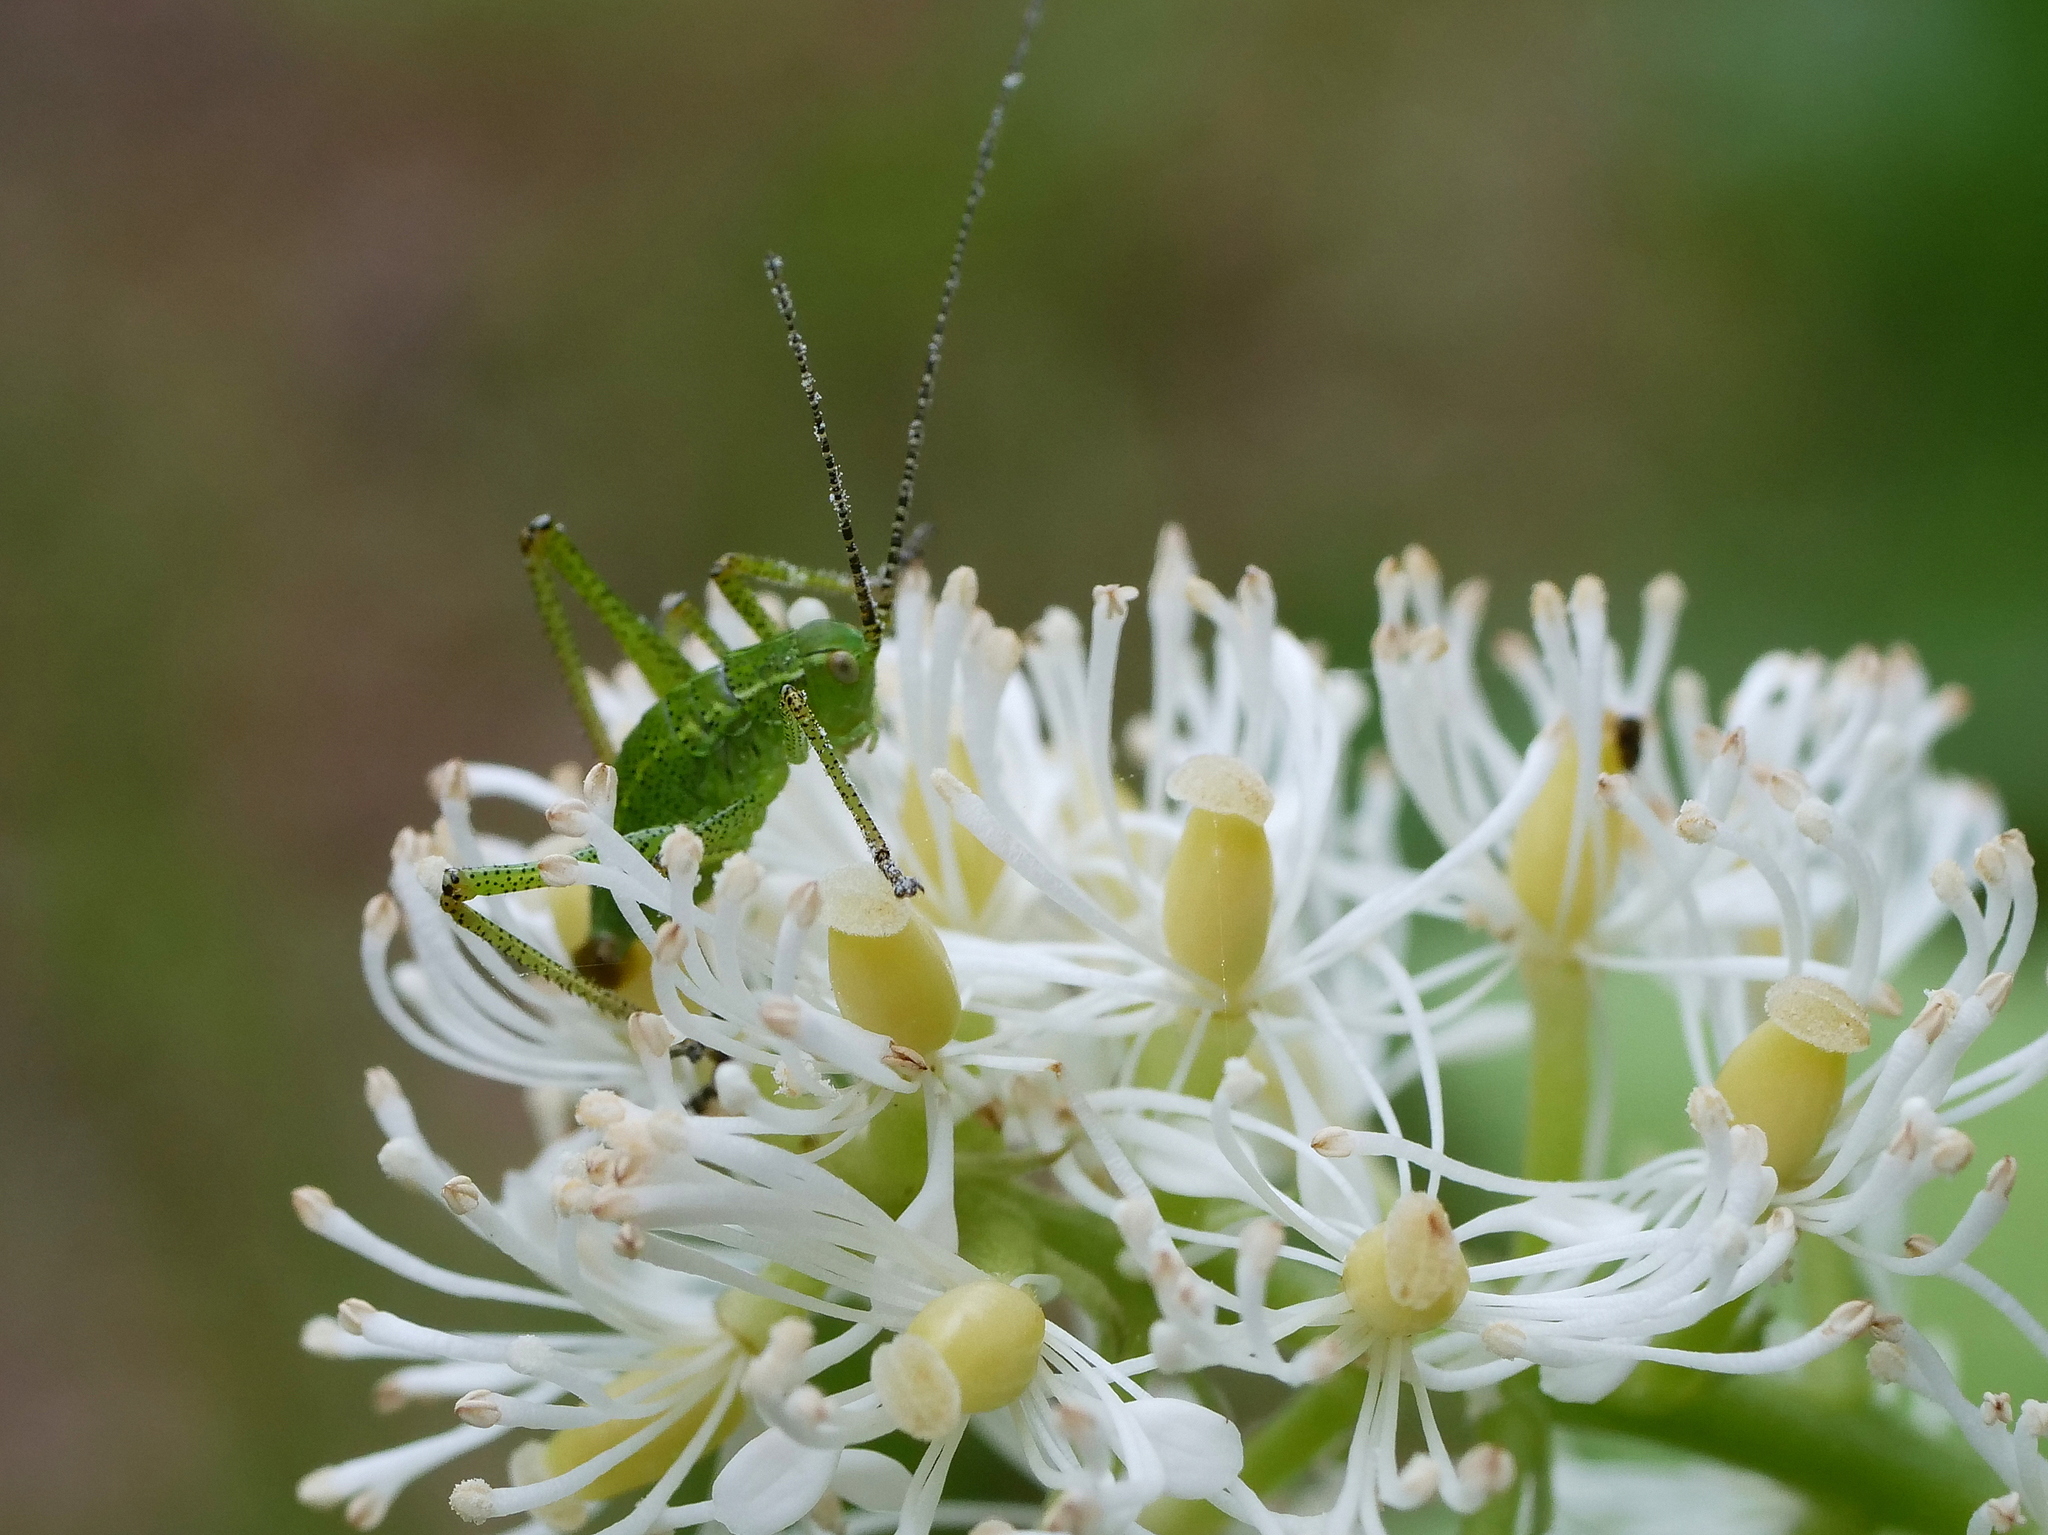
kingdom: Plantae
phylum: Tracheophyta
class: Magnoliopsida
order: Ranunculales
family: Ranunculaceae
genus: Actaea
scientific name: Actaea spicata
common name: Baneberry
